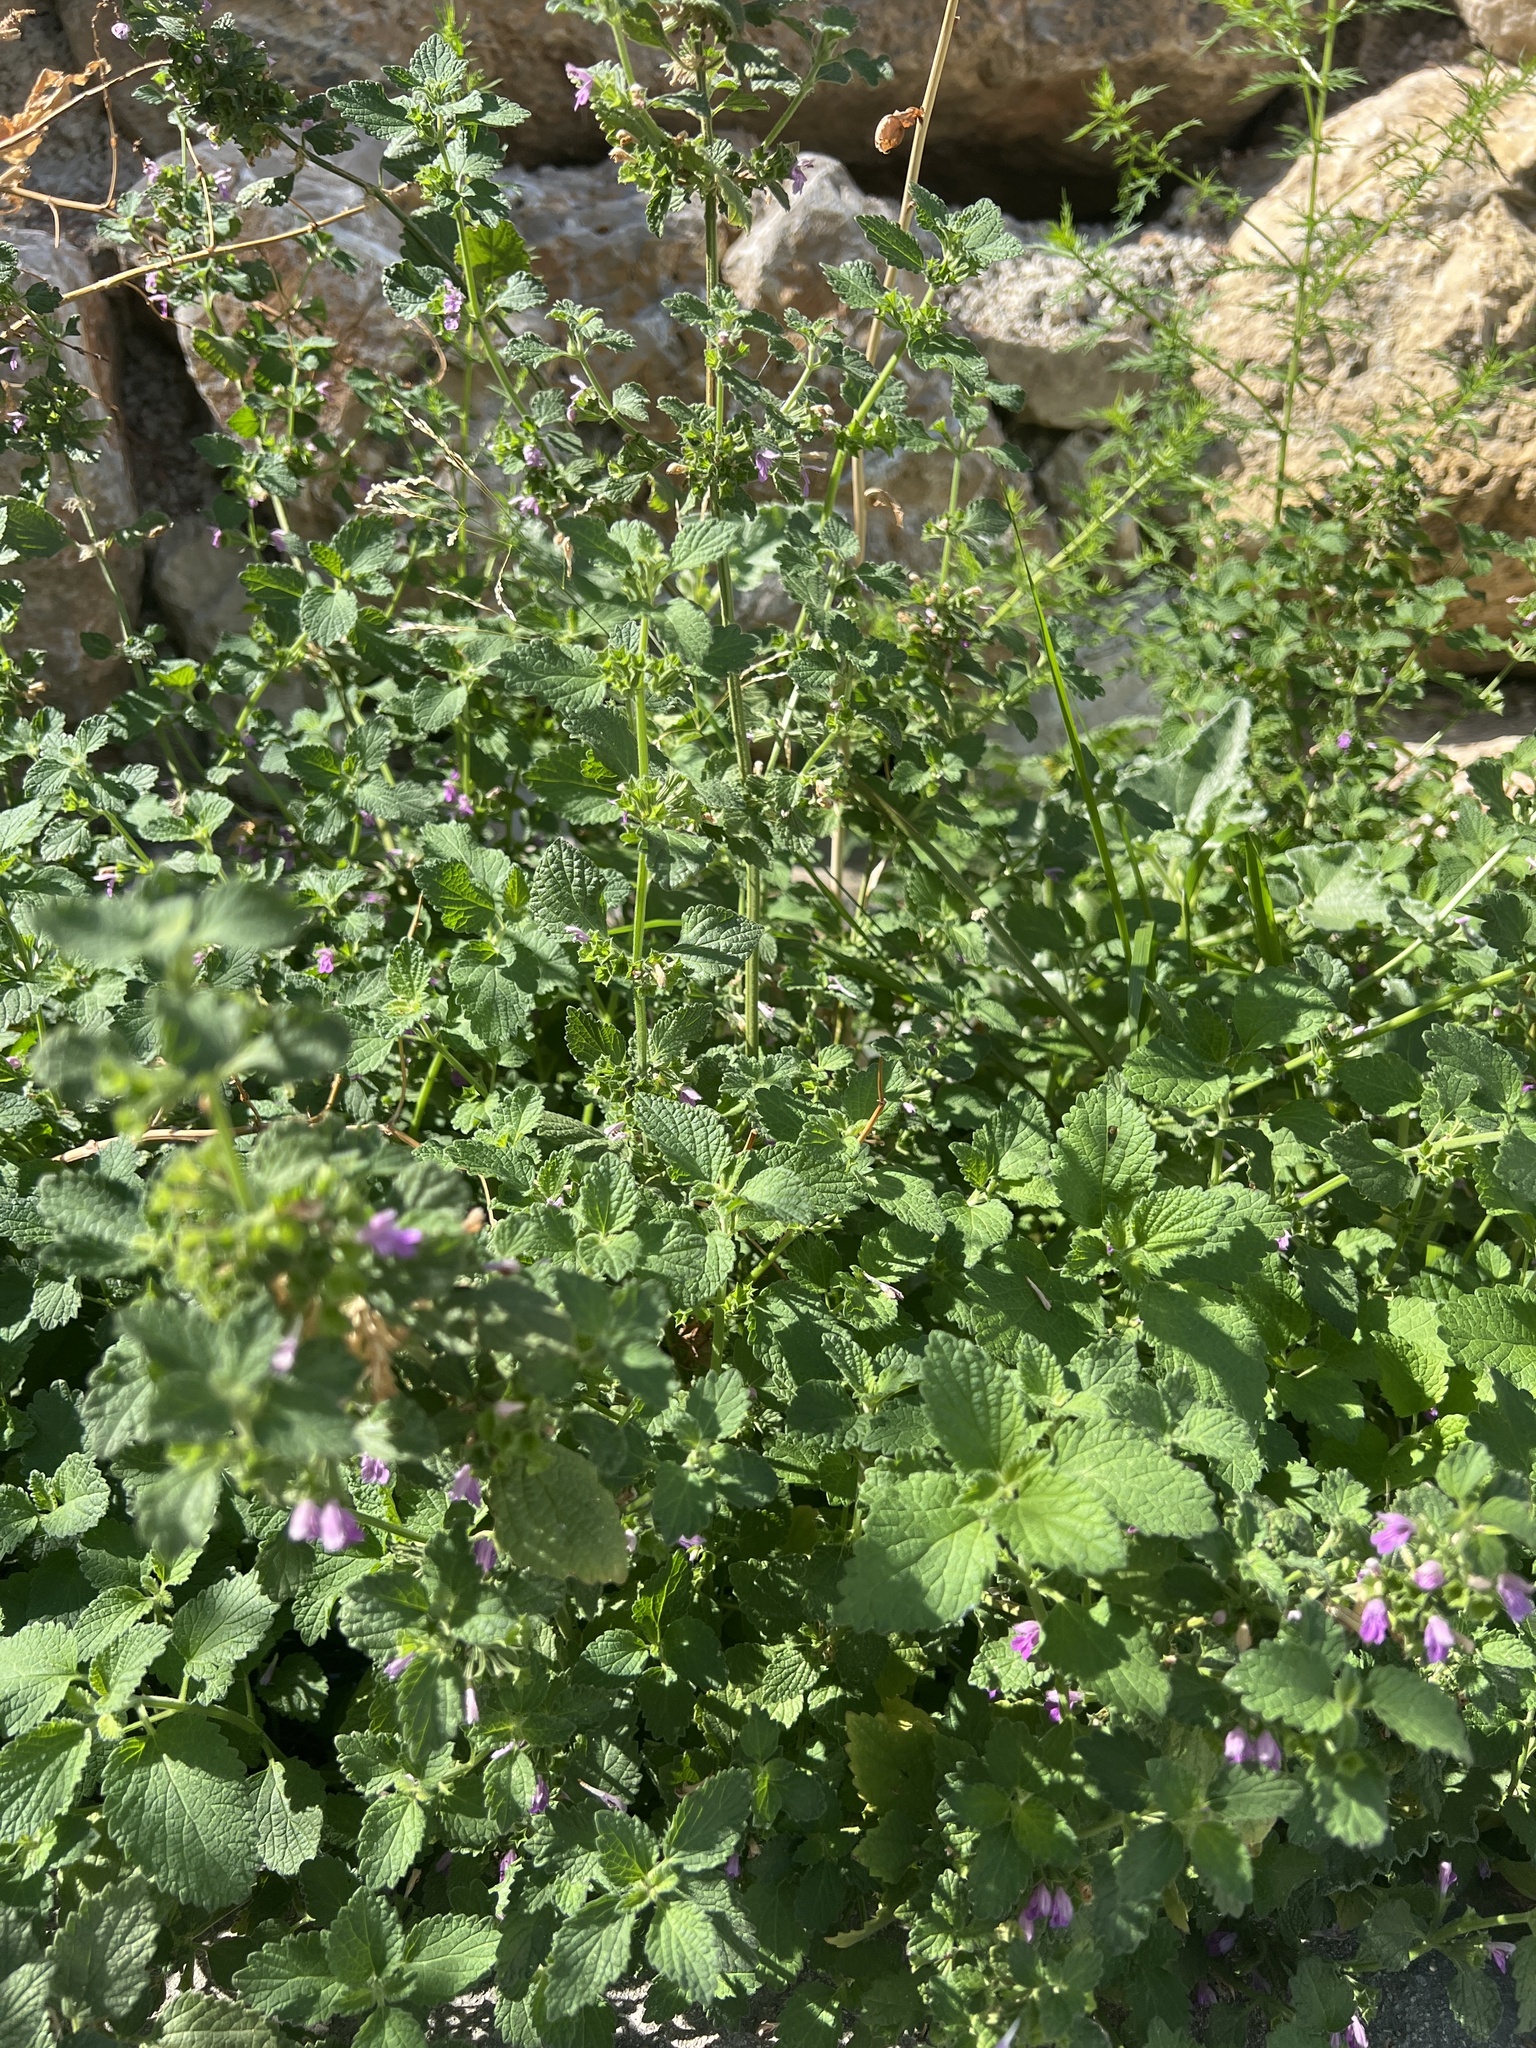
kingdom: Plantae
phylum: Tracheophyta
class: Magnoliopsida
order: Lamiales
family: Lamiaceae
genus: Ballota
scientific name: Ballota nigra
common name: Black horehound
